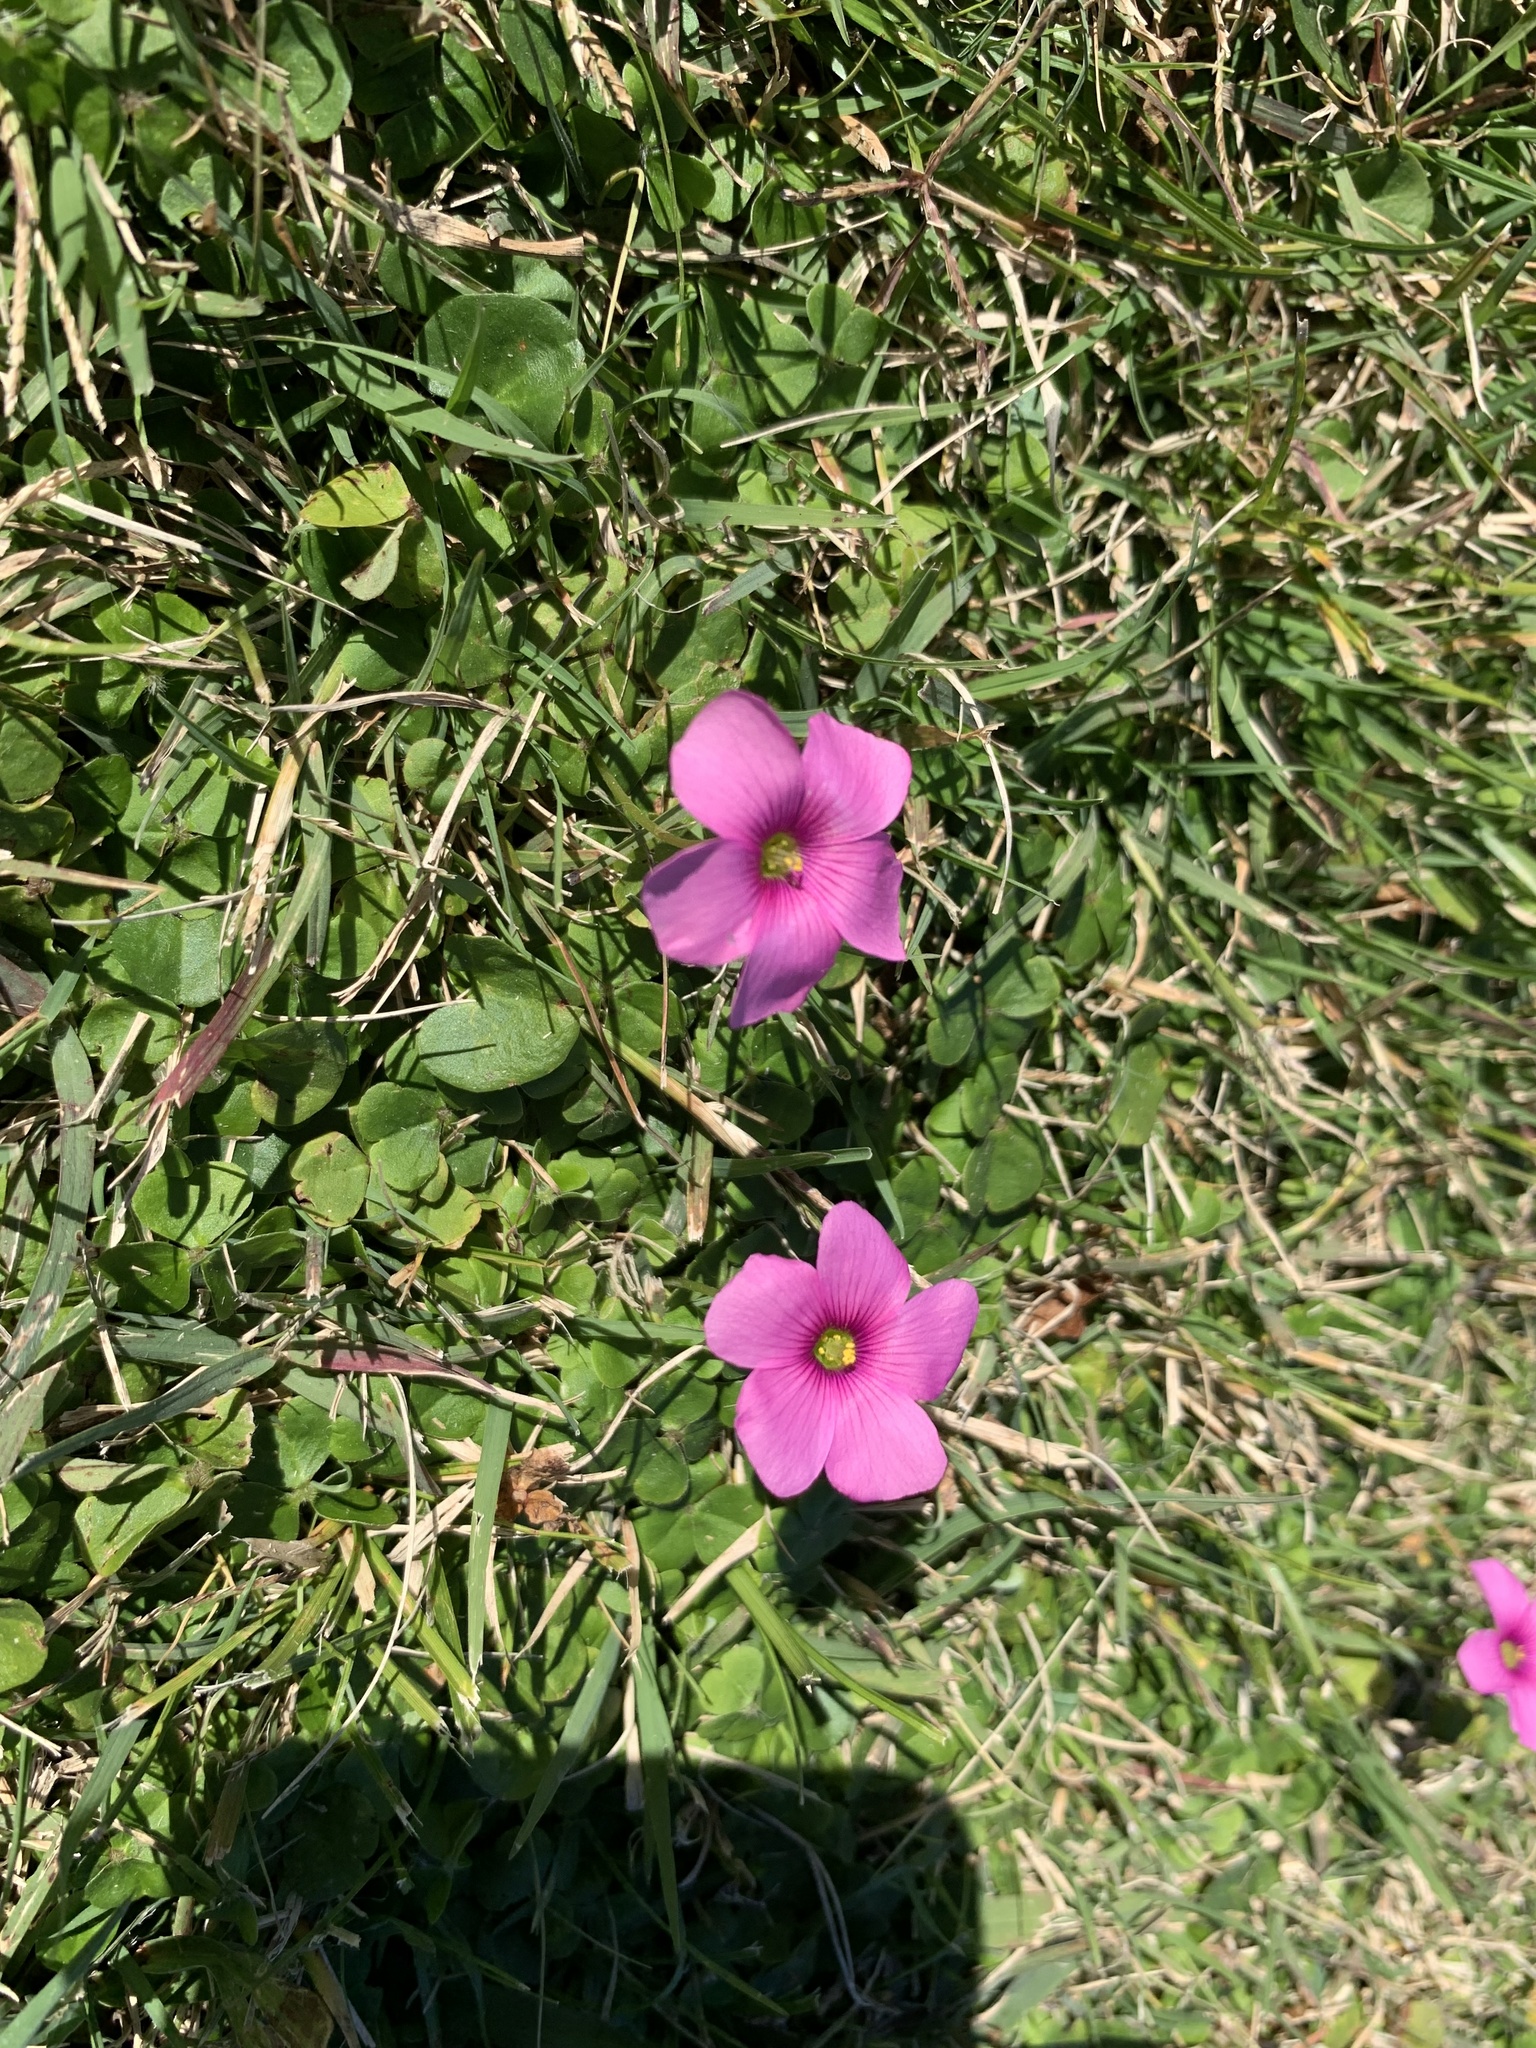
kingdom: Plantae
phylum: Tracheophyta
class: Magnoliopsida
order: Oxalidales
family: Oxalidaceae
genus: Oxalis
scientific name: Oxalis hispidula
